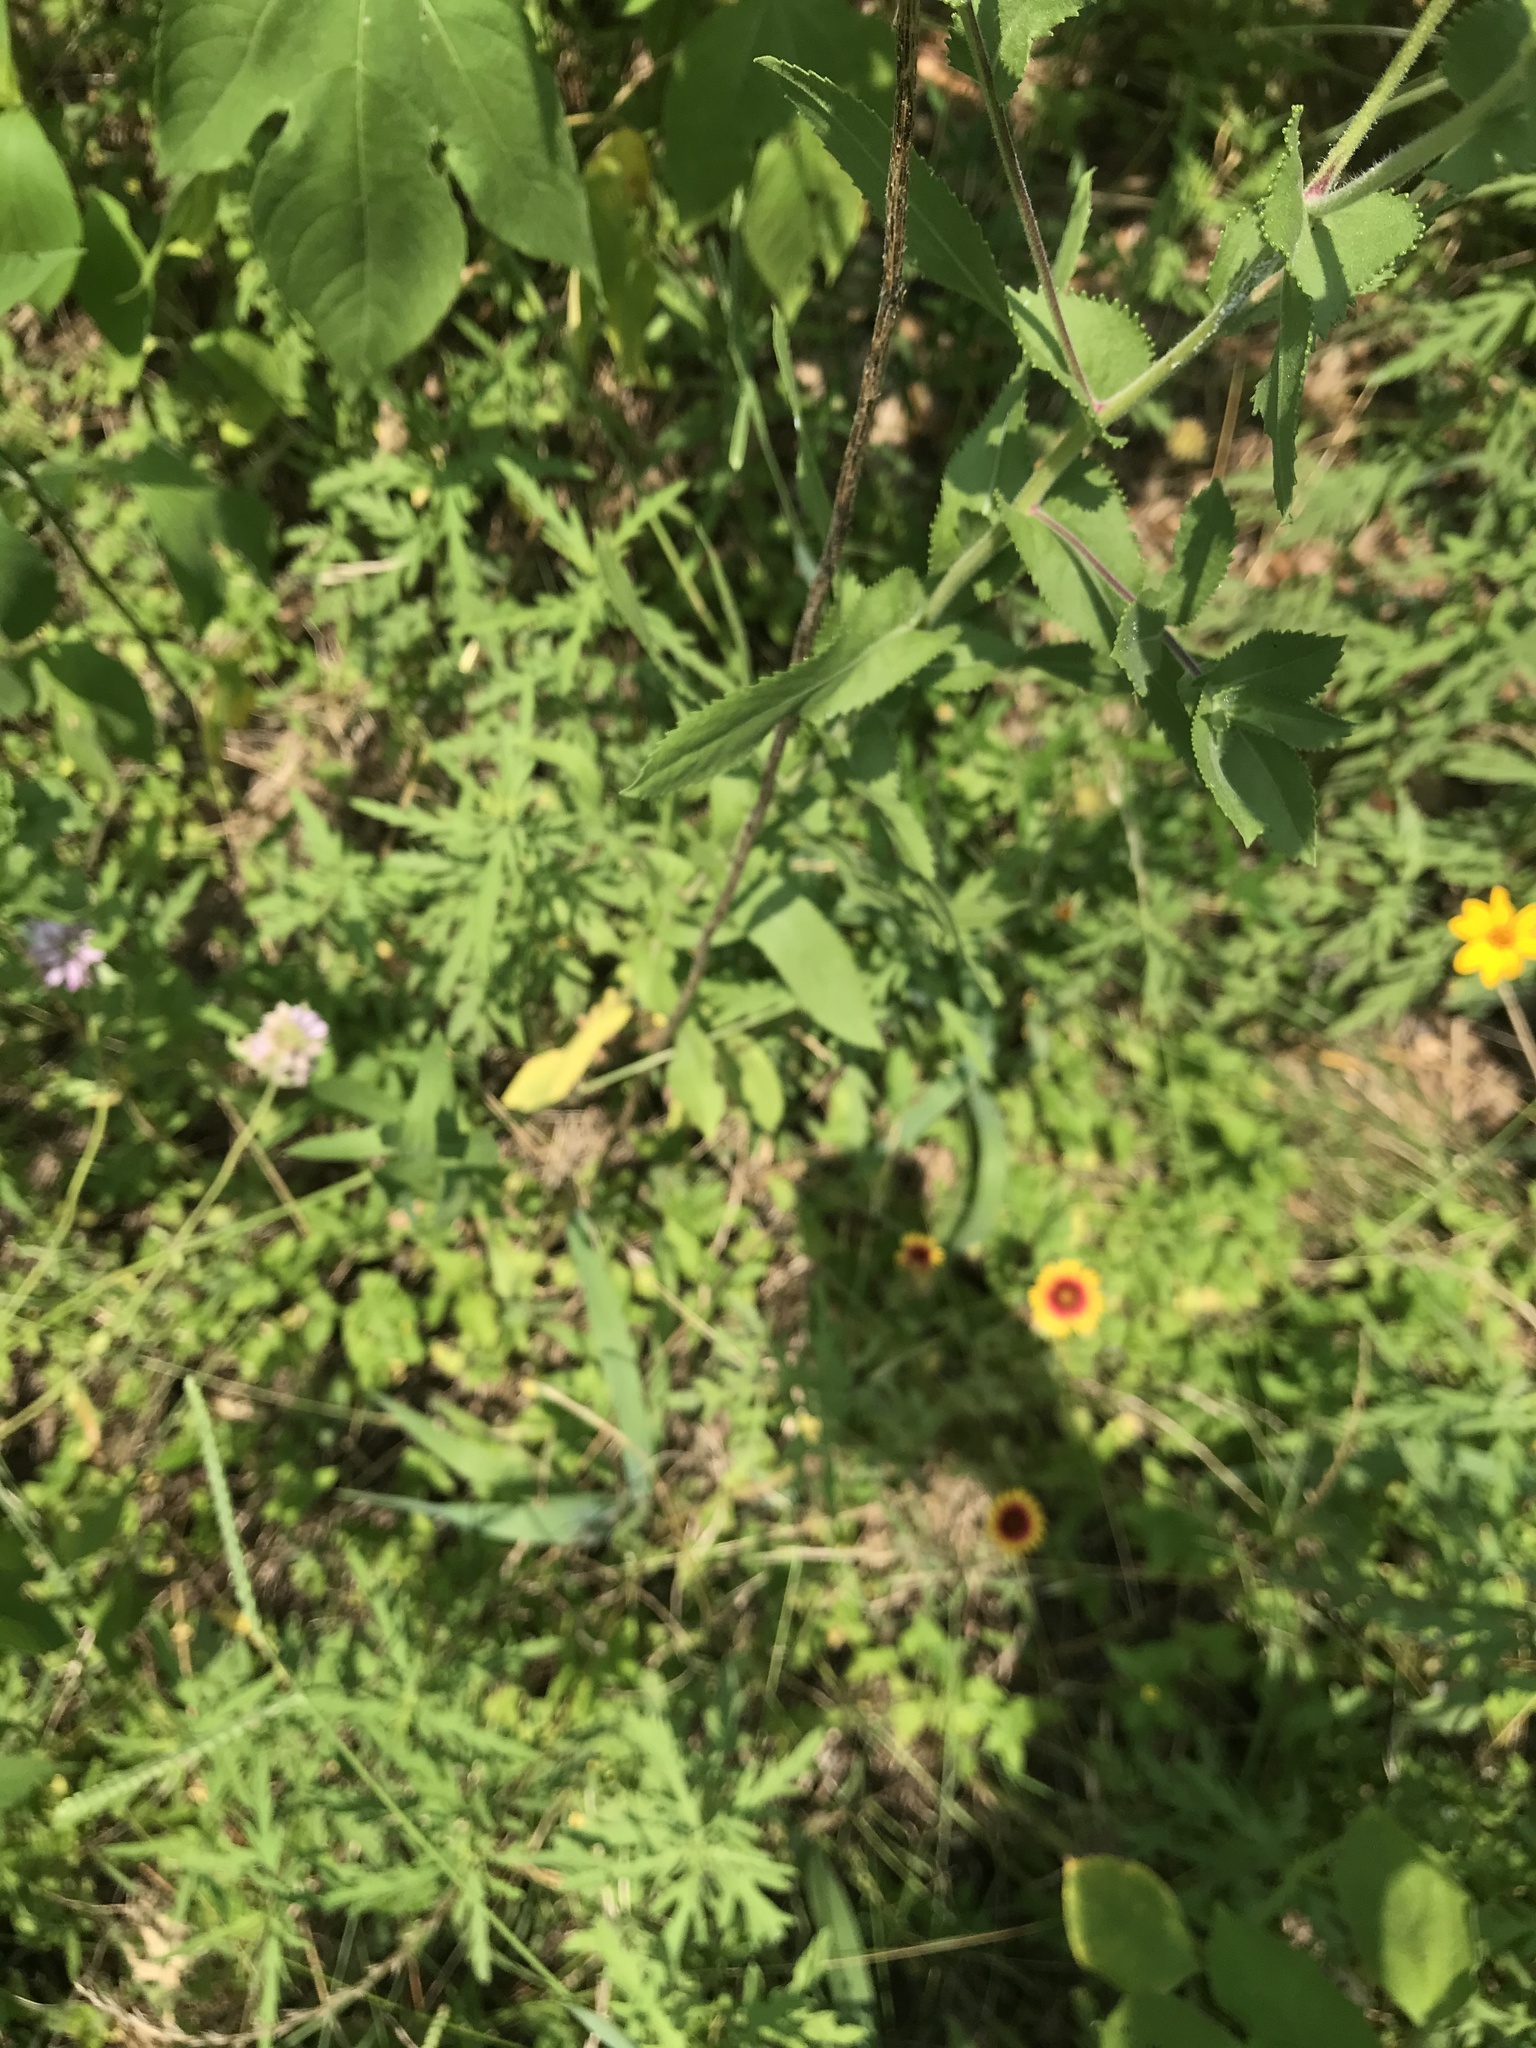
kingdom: Plantae
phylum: Tracheophyta
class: Magnoliopsida
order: Asterales
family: Asteraceae
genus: Grindelia
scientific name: Grindelia adenodonta
